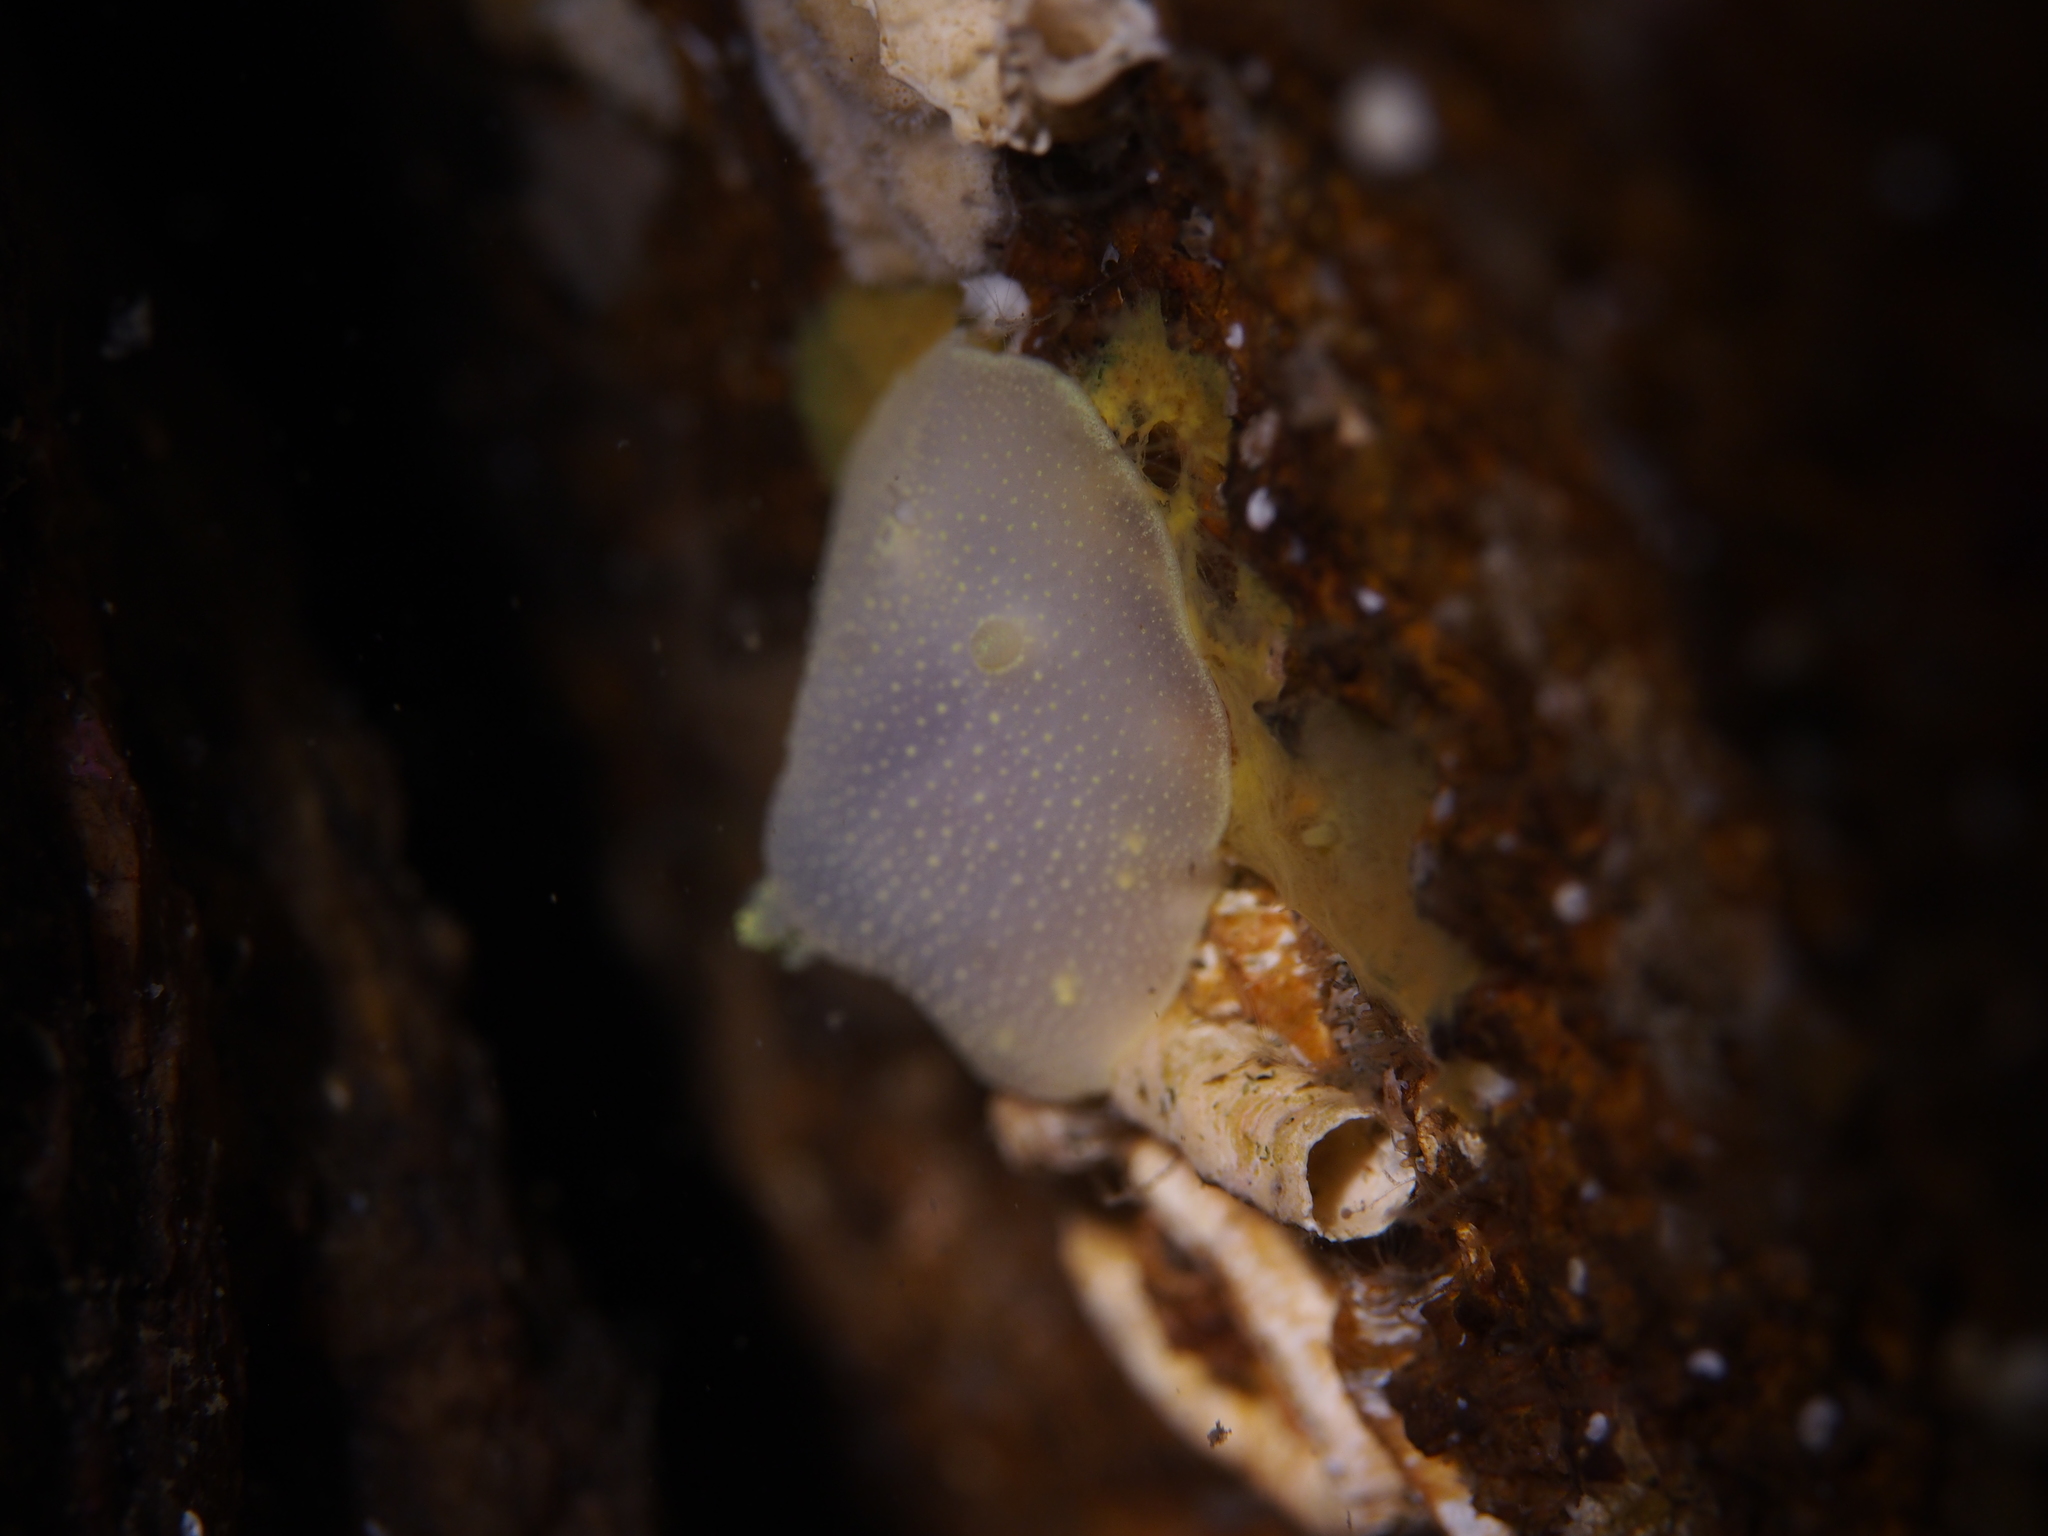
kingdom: Animalia
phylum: Mollusca
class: Gastropoda
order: Nudibranchia
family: Cadlinidae
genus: Cadlina
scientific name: Cadlina laevis
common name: White atlantic cadlina
